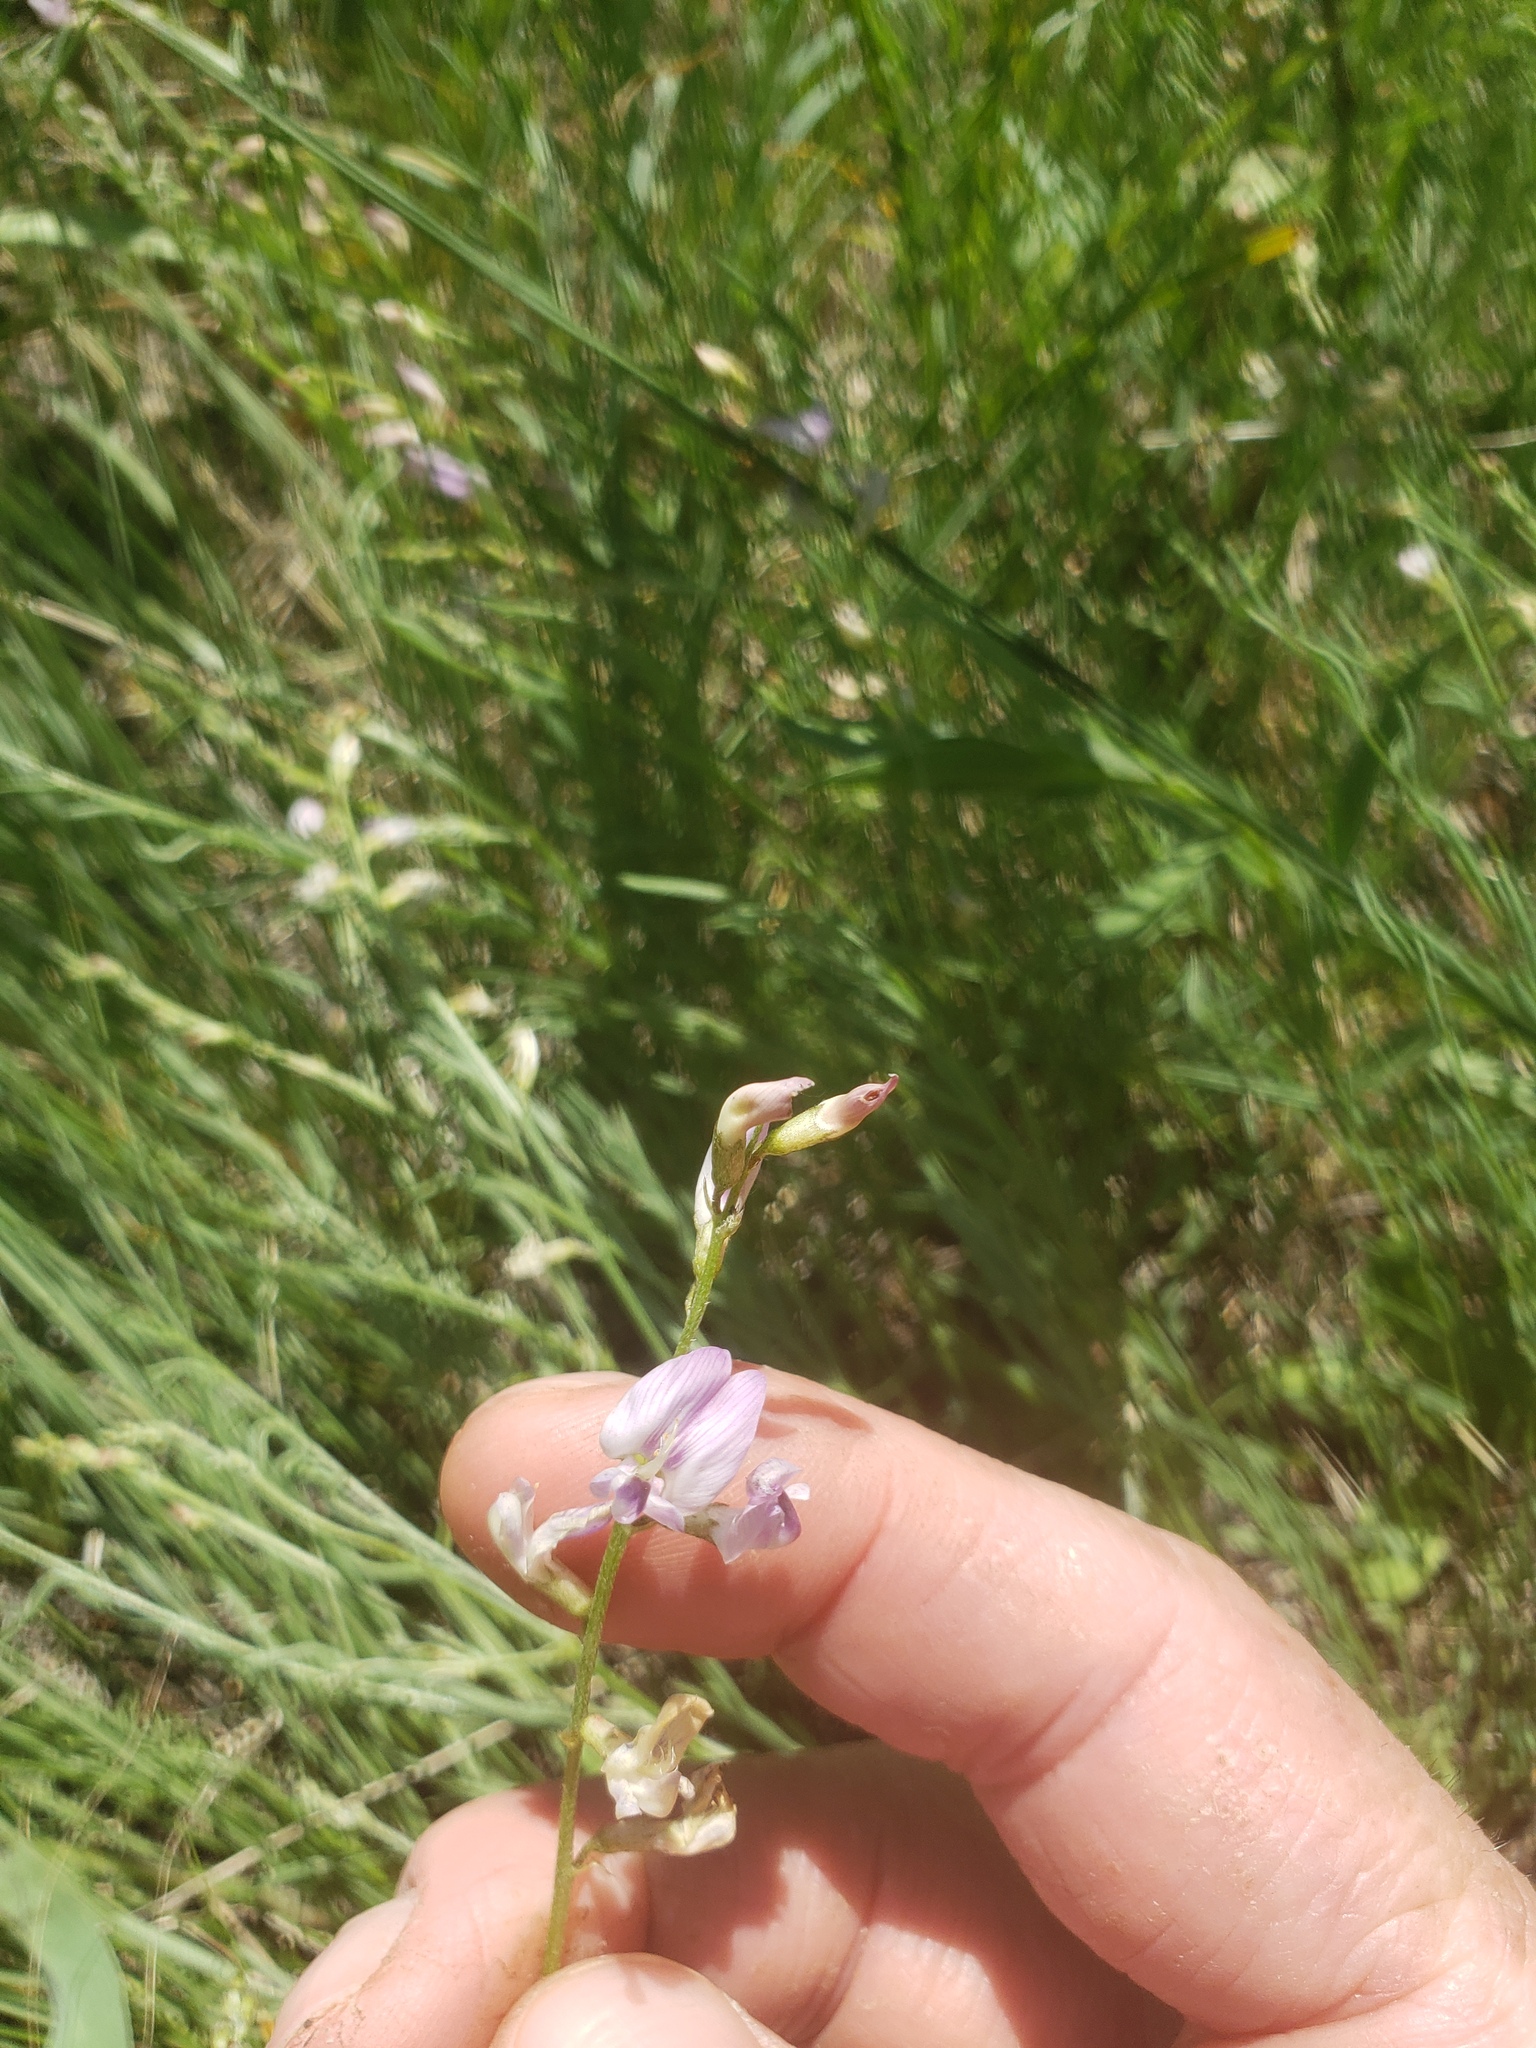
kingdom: Plantae
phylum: Tracheophyta
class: Magnoliopsida
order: Fabales
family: Fabaceae
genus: Astragalus
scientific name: Astragalus miser
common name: Timber milkvetch
